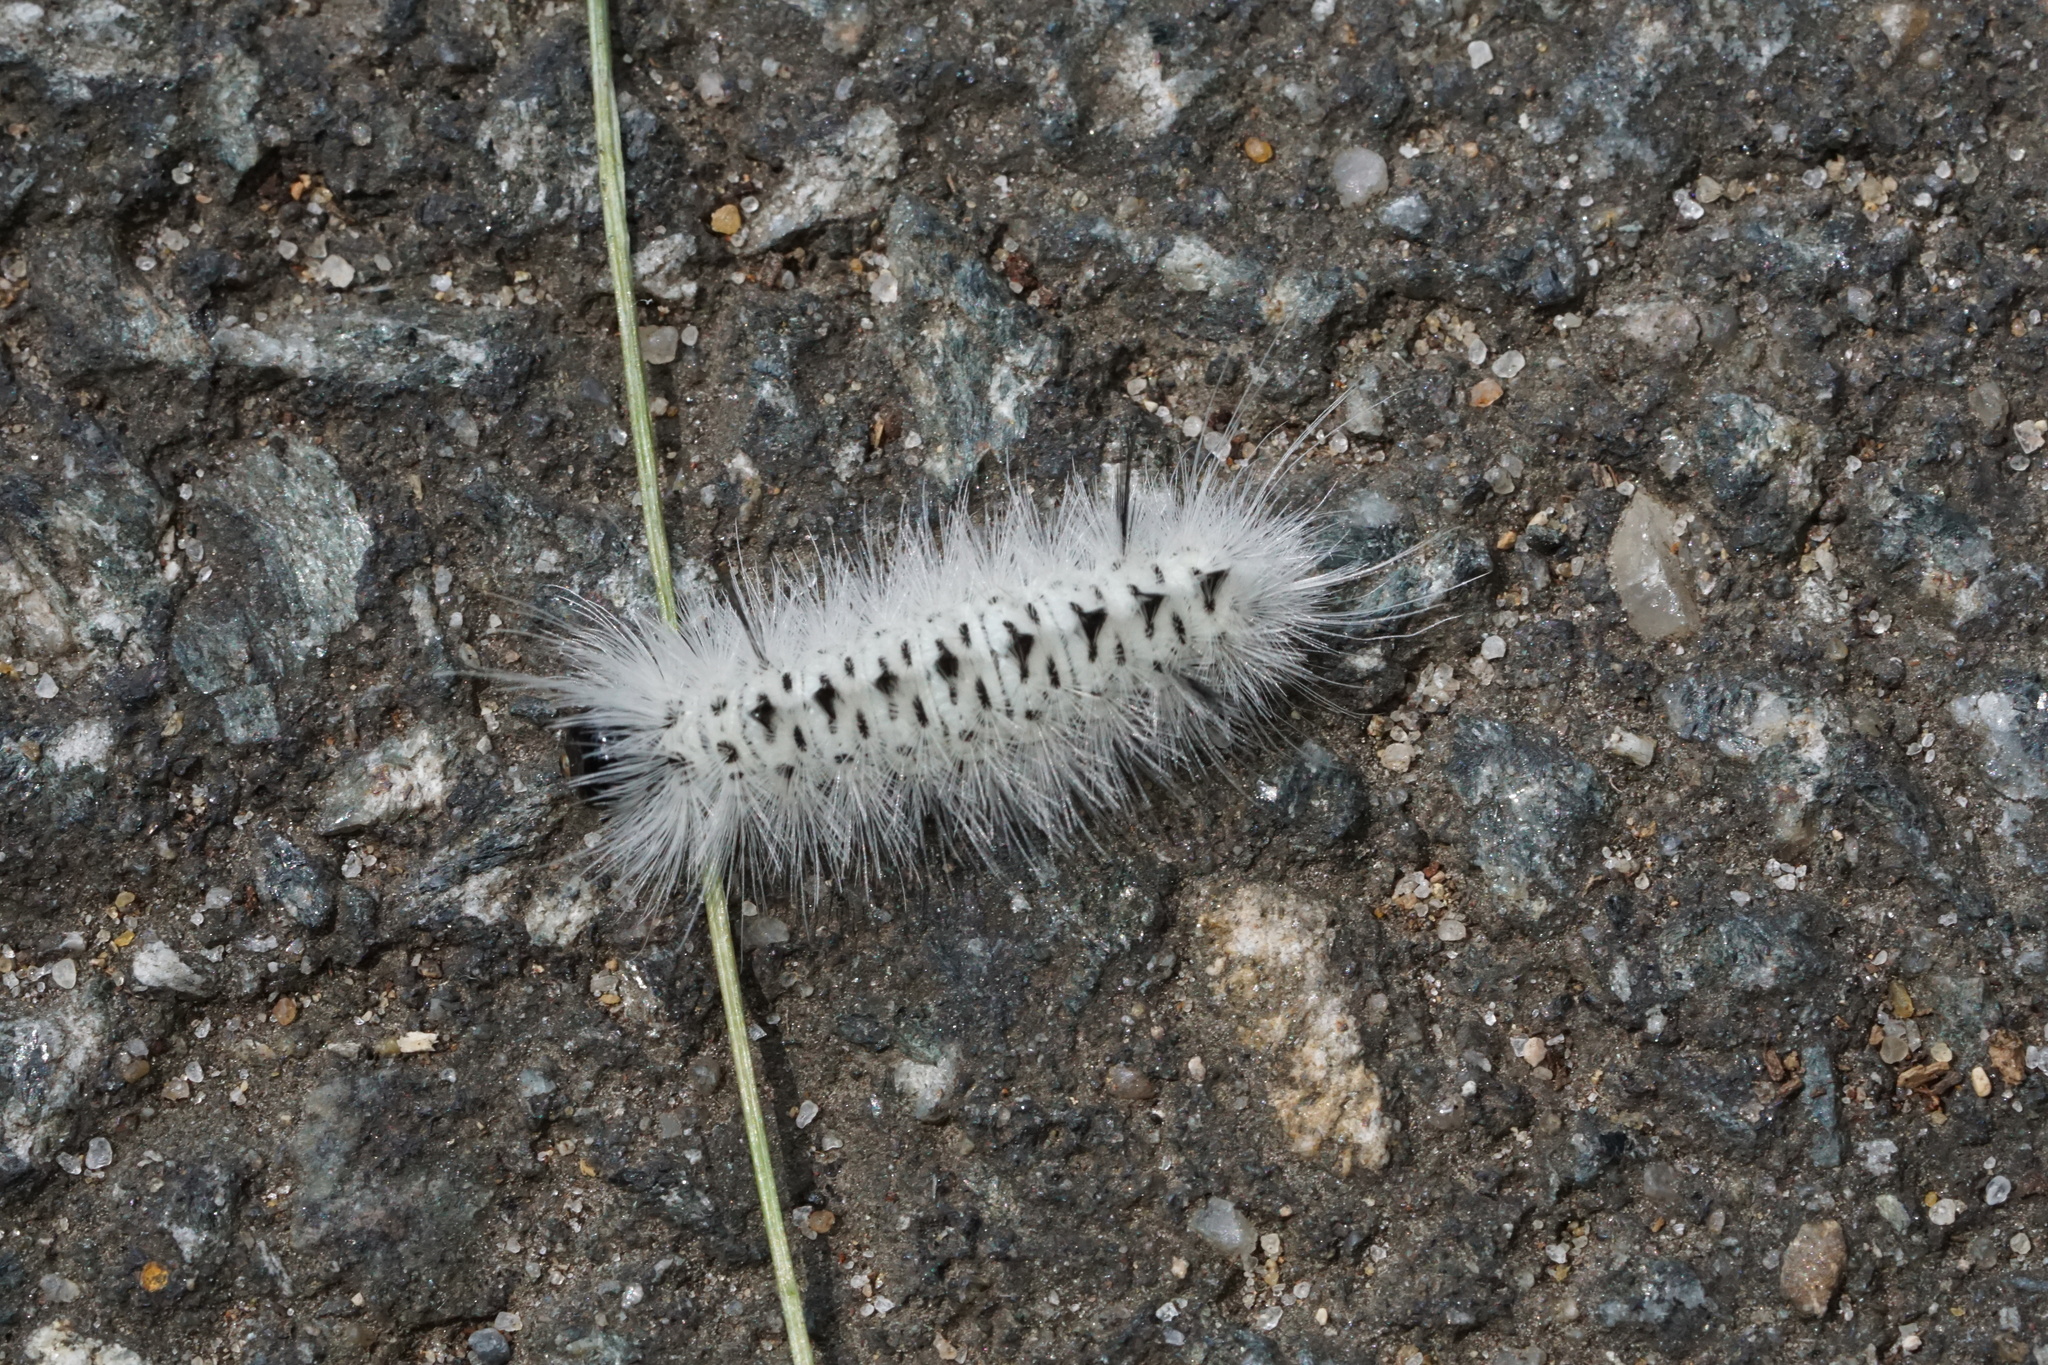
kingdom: Animalia
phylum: Arthropoda
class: Insecta
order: Lepidoptera
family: Erebidae
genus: Lophocampa
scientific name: Lophocampa caryae
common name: Hickory tussock moth
